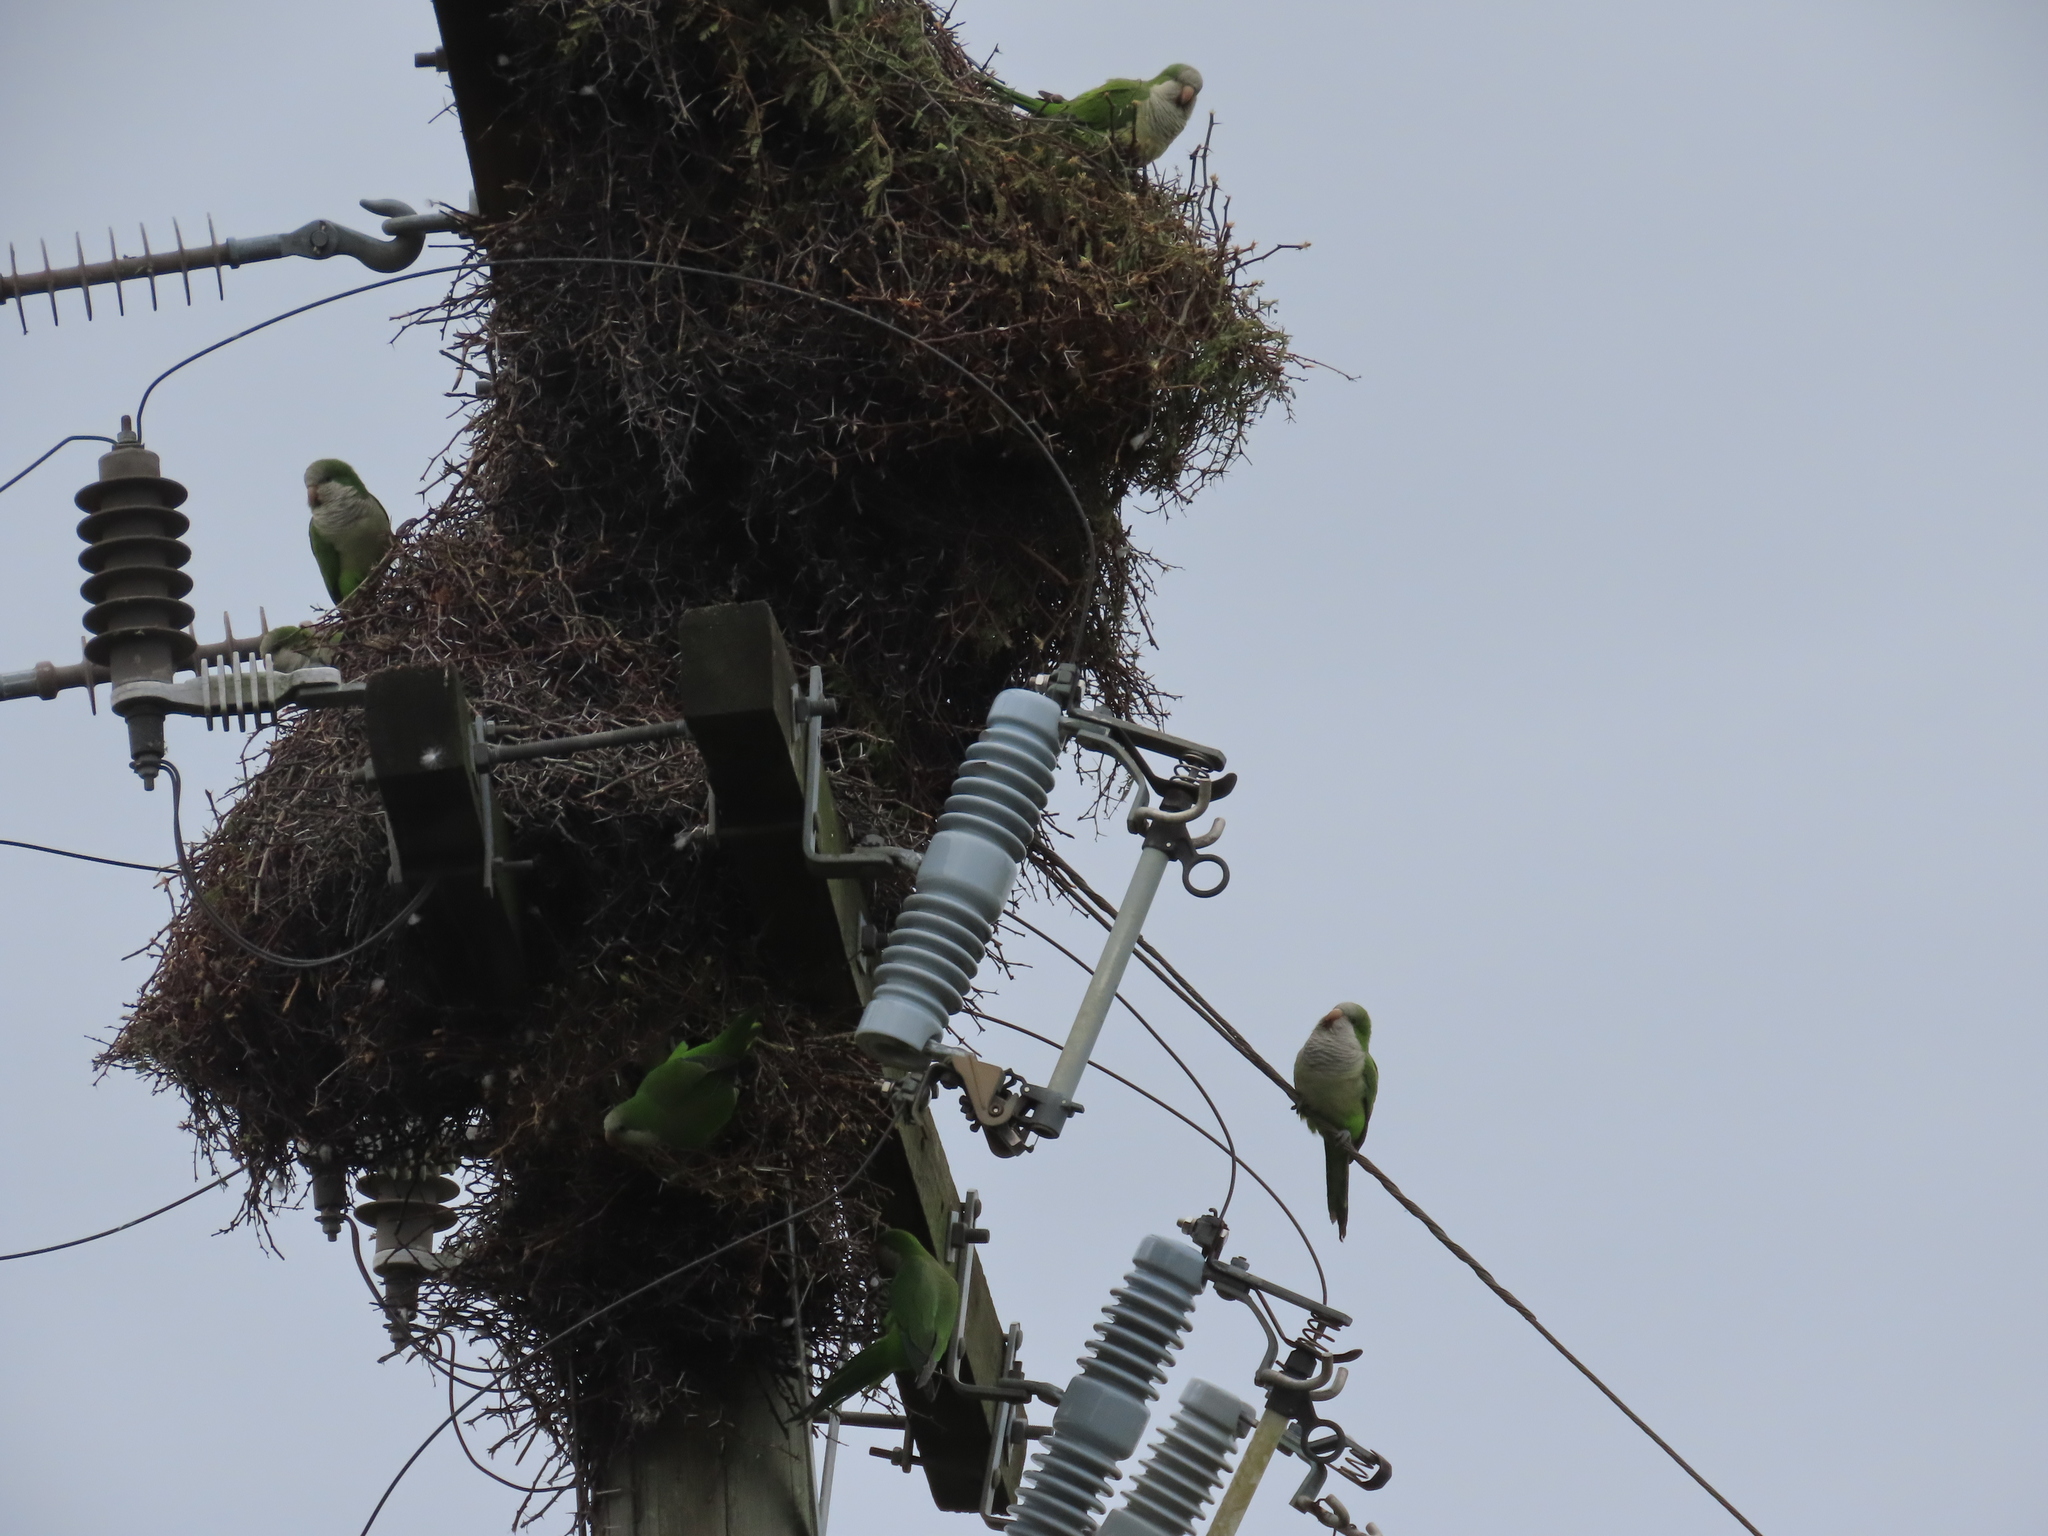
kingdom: Animalia
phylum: Chordata
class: Aves
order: Psittaciformes
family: Psittacidae
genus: Myiopsitta
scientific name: Myiopsitta monachus
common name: Monk parakeet
